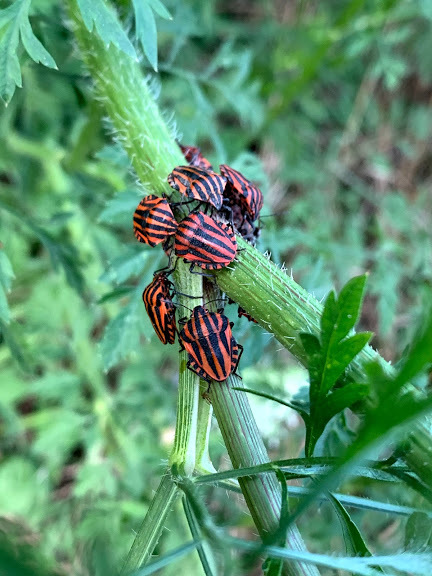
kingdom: Animalia
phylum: Arthropoda
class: Insecta
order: Hemiptera
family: Pentatomidae
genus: Graphosoma
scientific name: Graphosoma italicum
